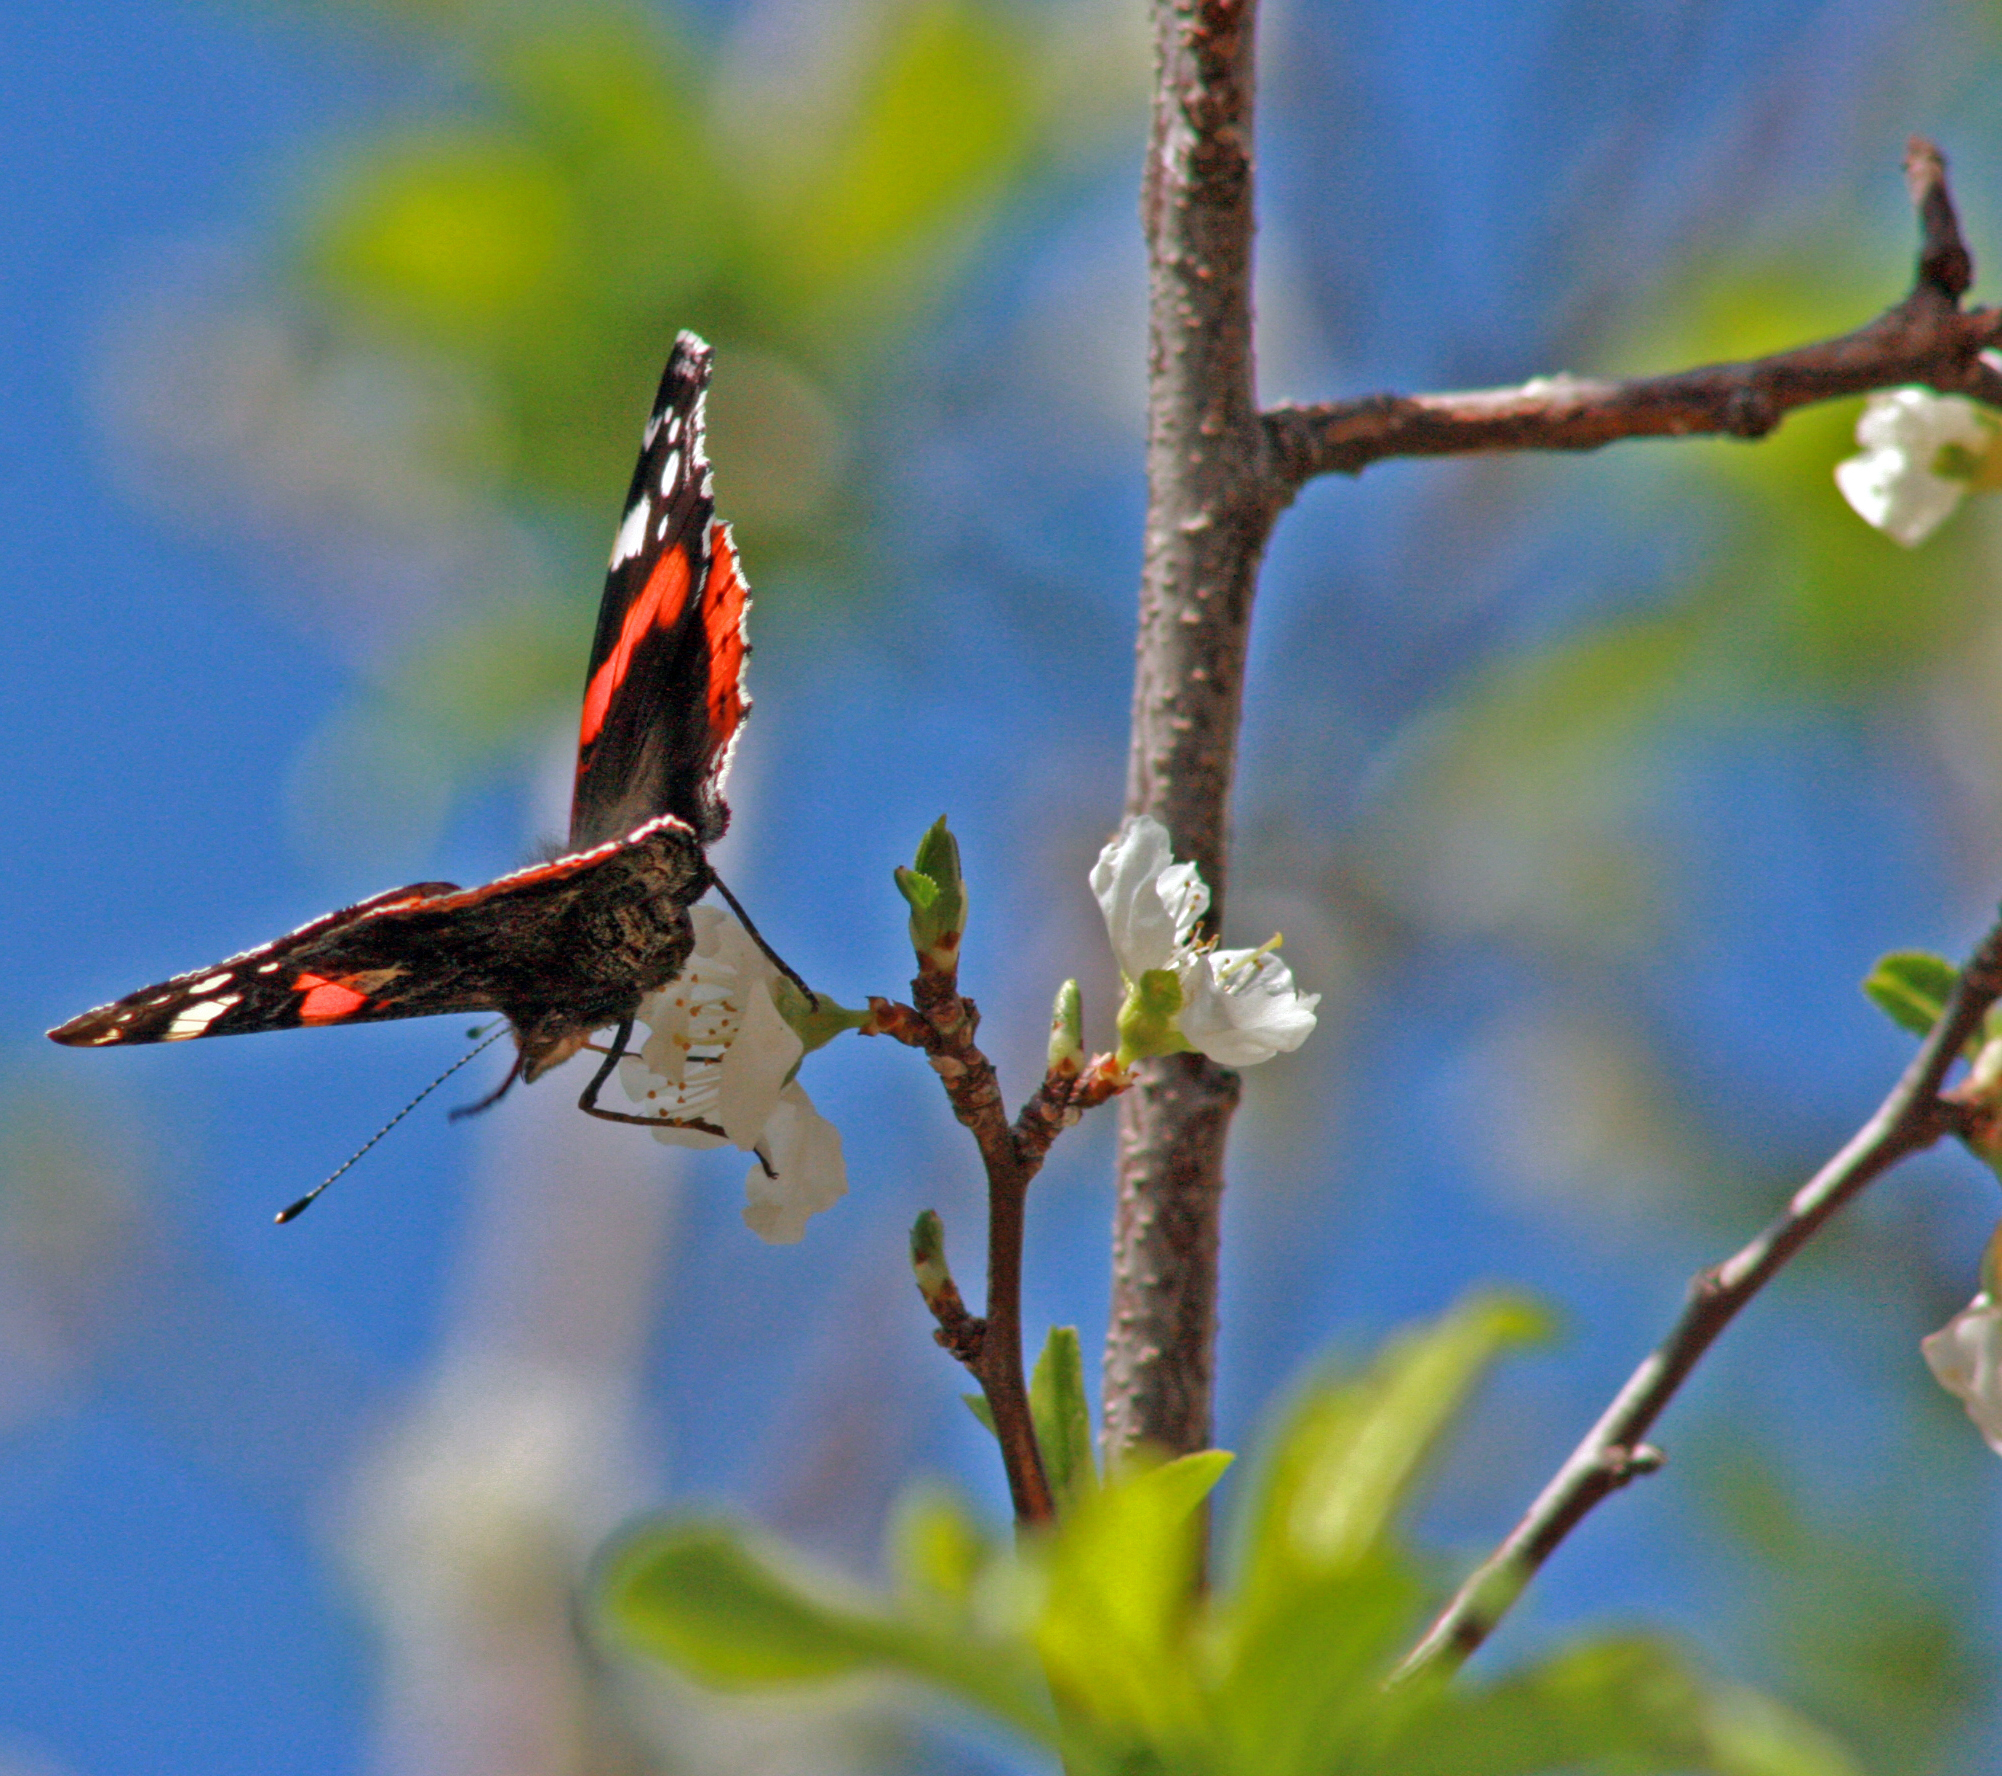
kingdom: Animalia
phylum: Arthropoda
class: Insecta
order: Lepidoptera
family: Nymphalidae
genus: Vanessa
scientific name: Vanessa atalanta
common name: Red admiral
